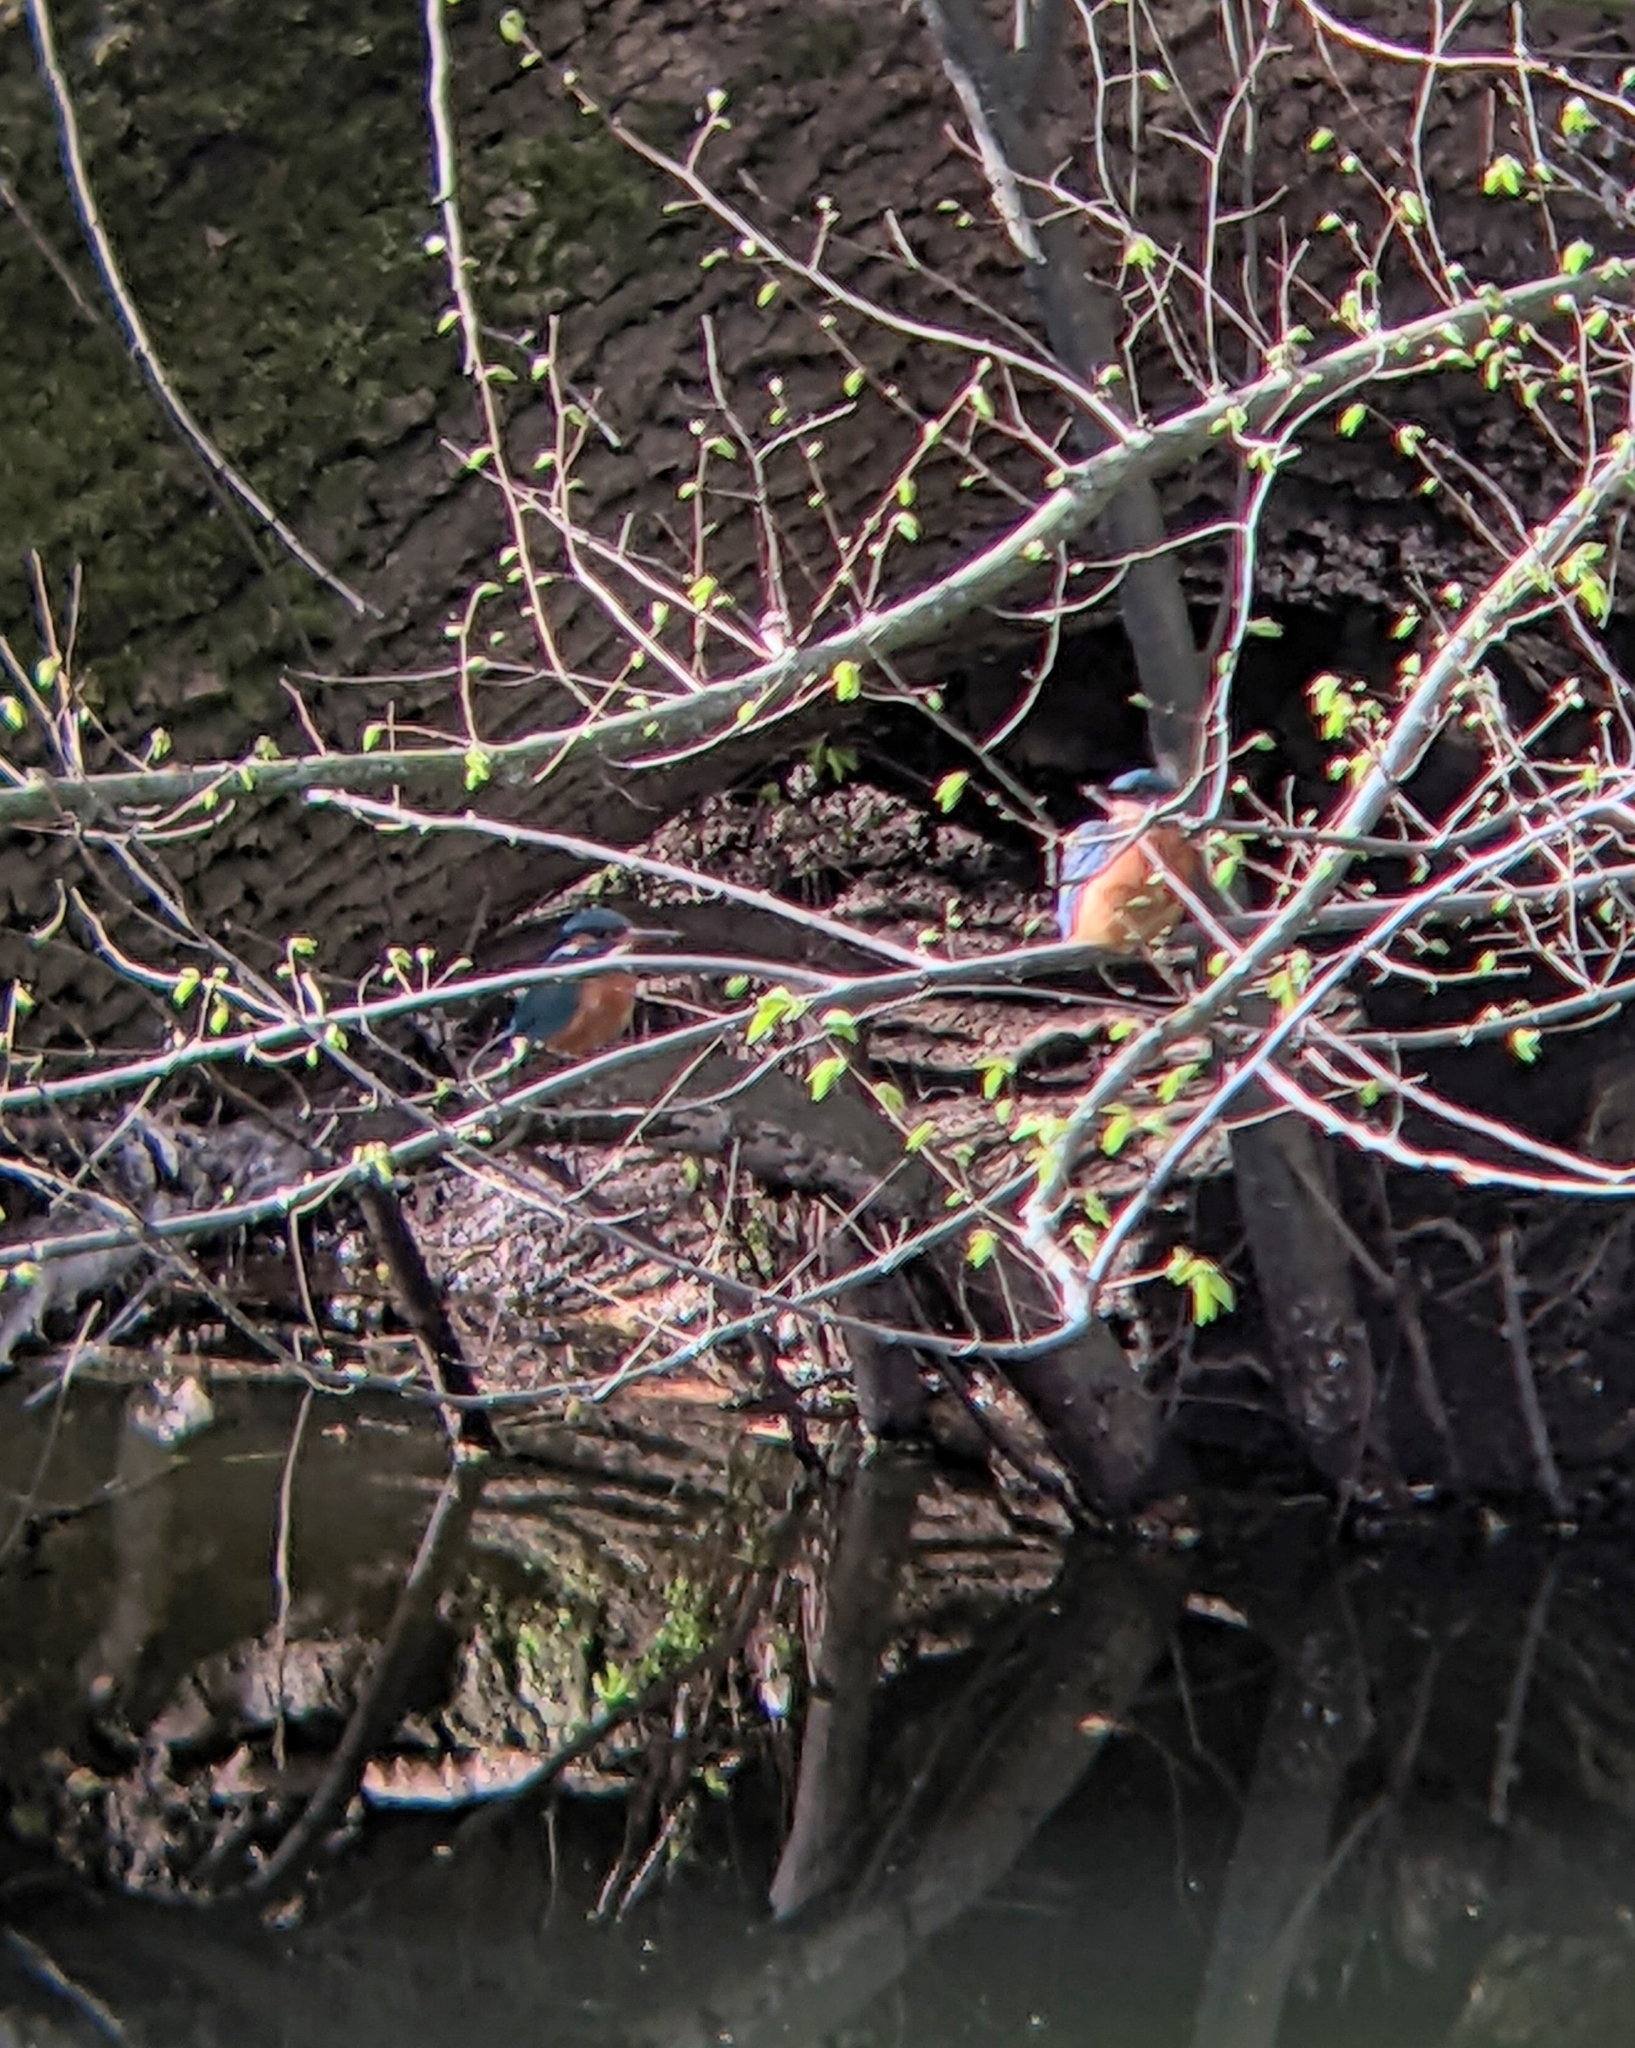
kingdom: Animalia
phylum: Chordata
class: Aves
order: Coraciiformes
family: Alcedinidae
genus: Alcedo
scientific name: Alcedo atthis
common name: Common kingfisher
